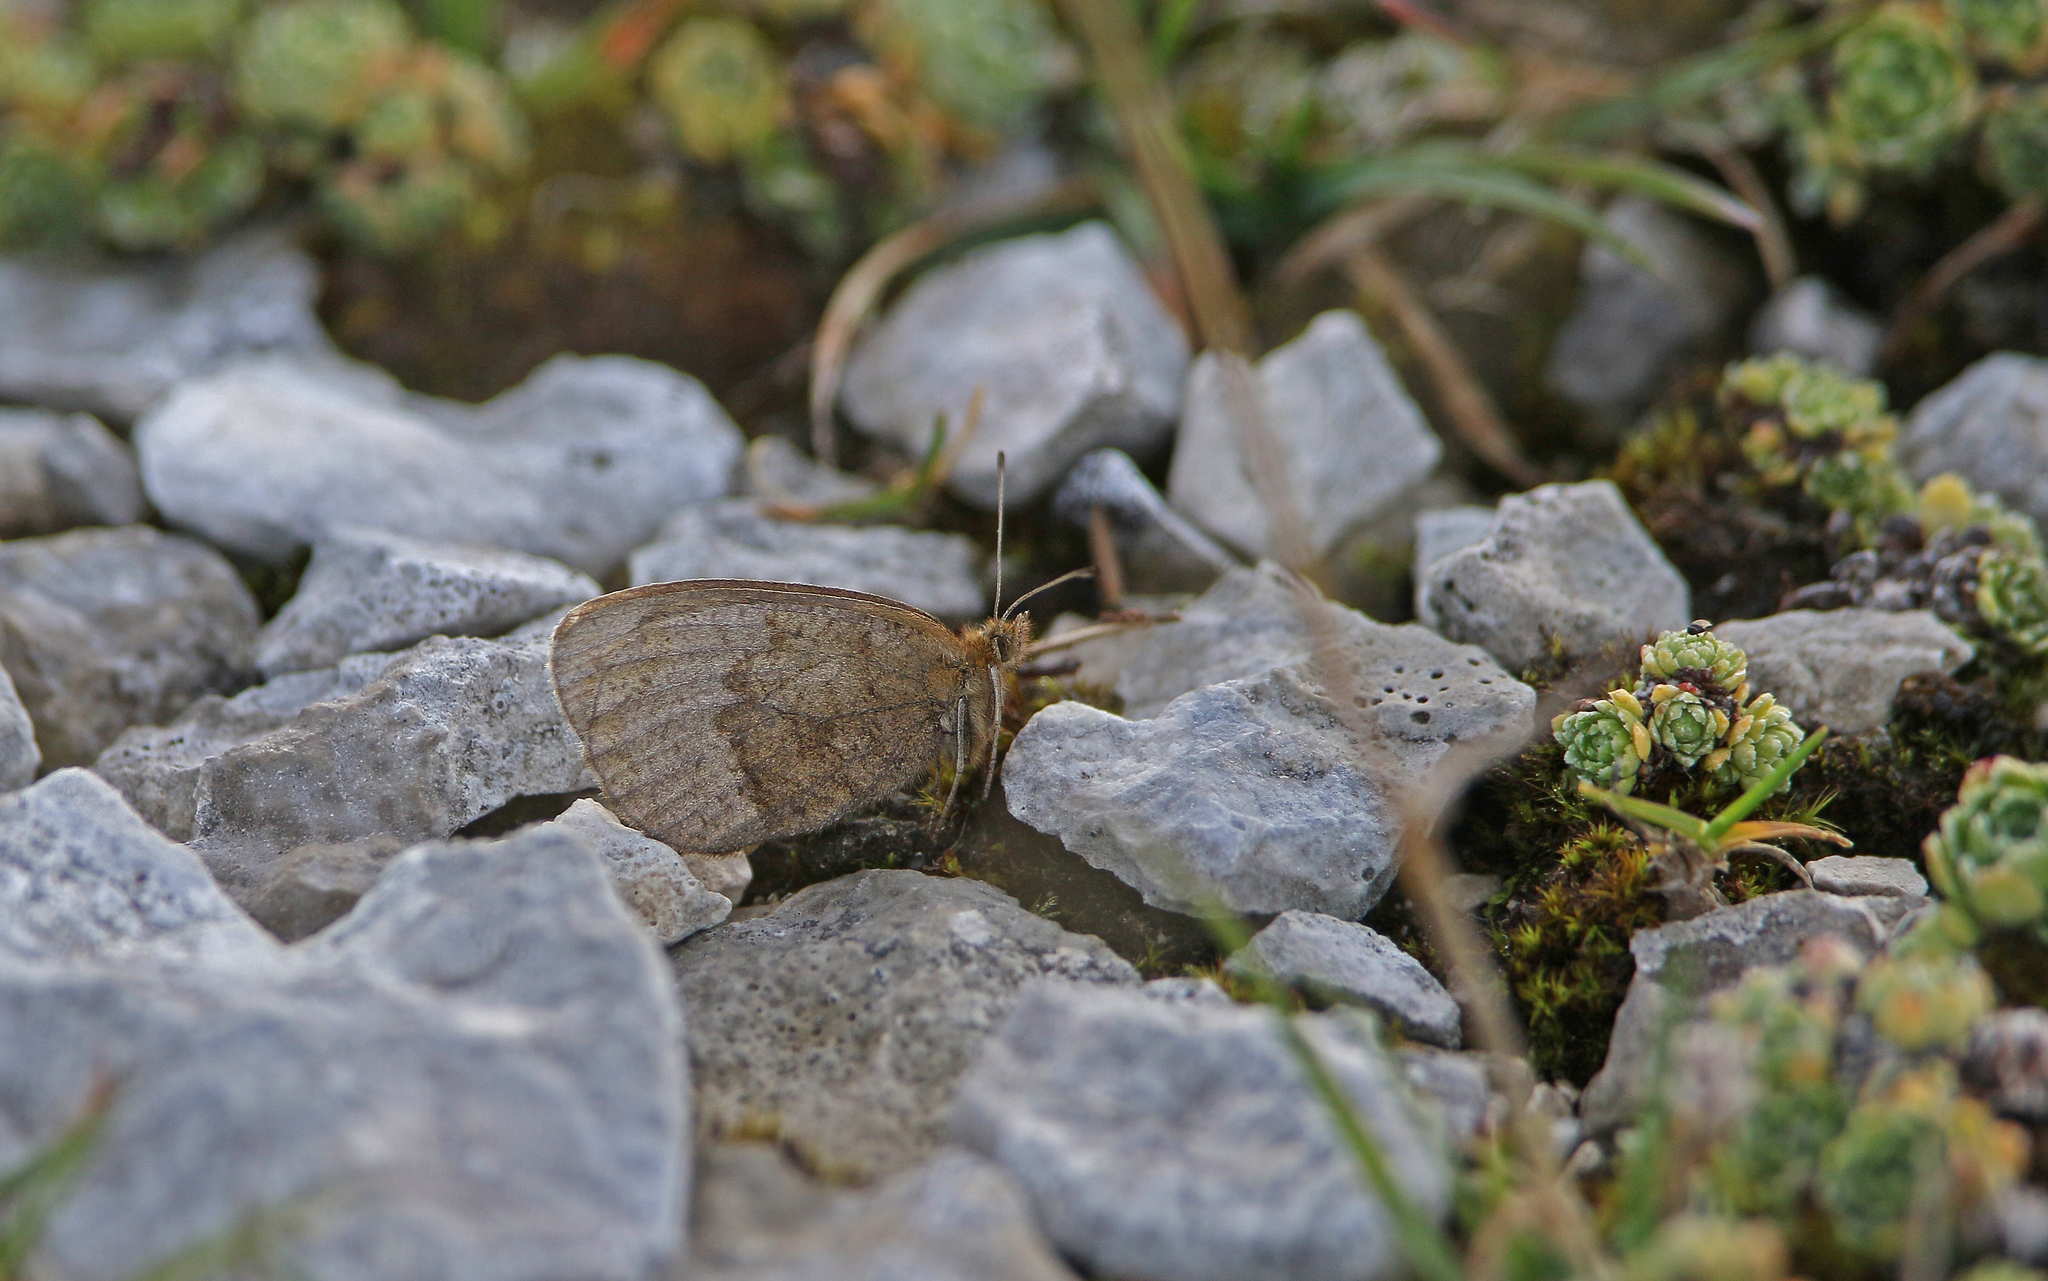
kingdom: Animalia
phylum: Arthropoda
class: Insecta
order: Lepidoptera
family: Nymphalidae
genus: Erebia
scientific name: Erebia pronoe
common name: Water ringlet
